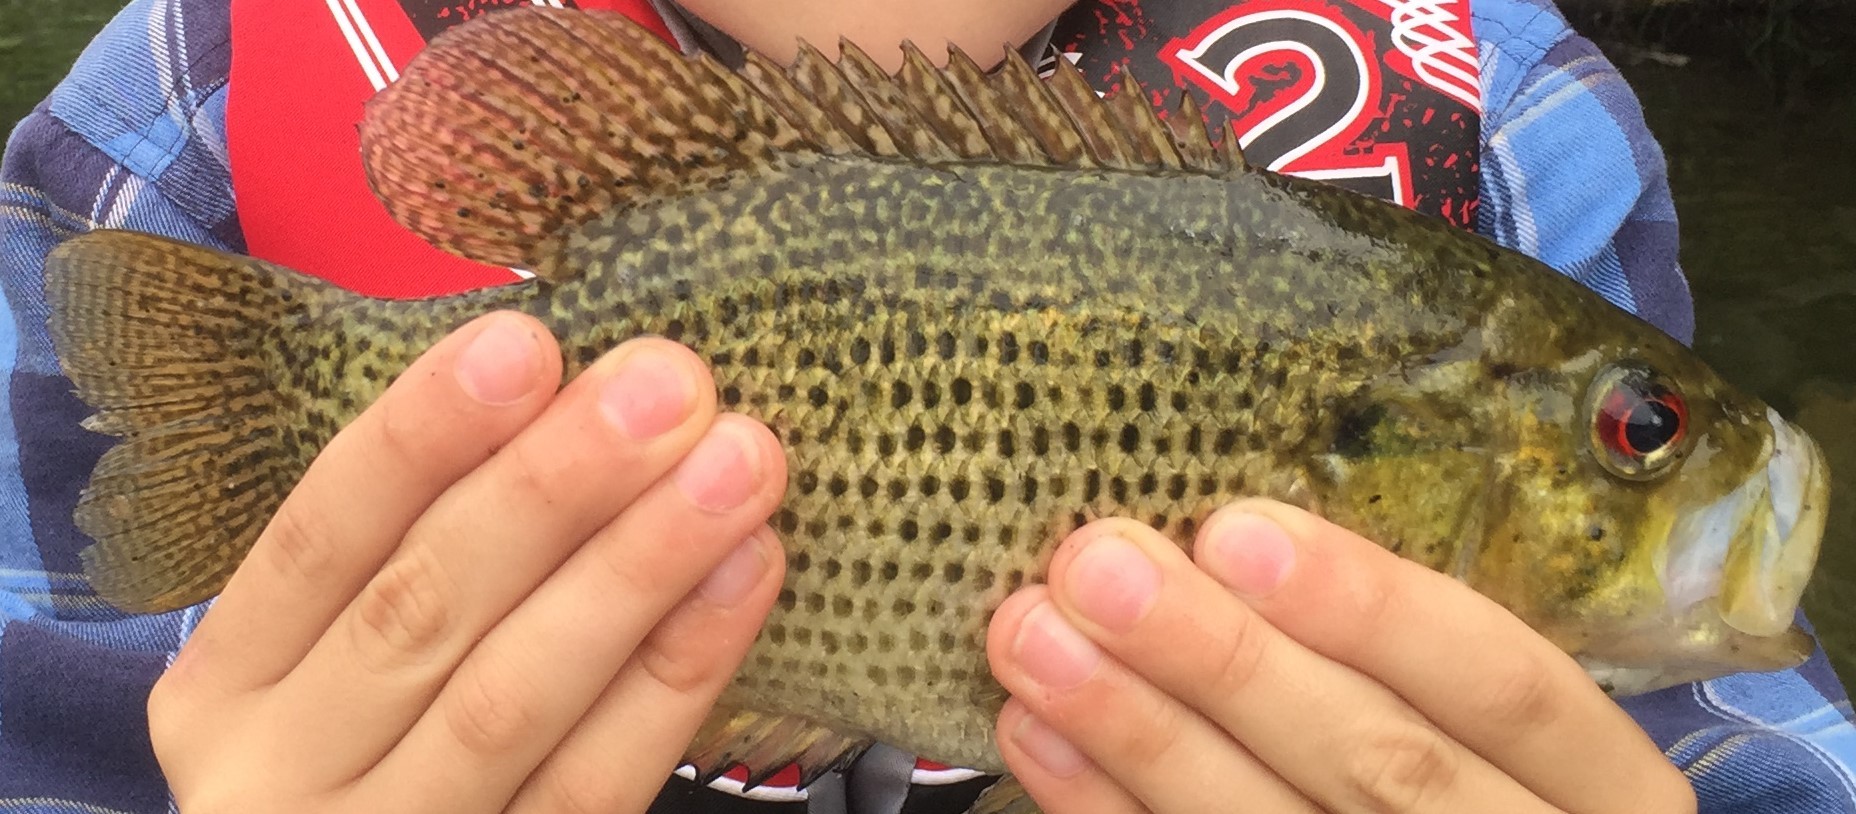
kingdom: Animalia
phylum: Chordata
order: Perciformes
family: Centrarchidae
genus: Ambloplites
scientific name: Ambloplites rupestris
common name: Rock bass
